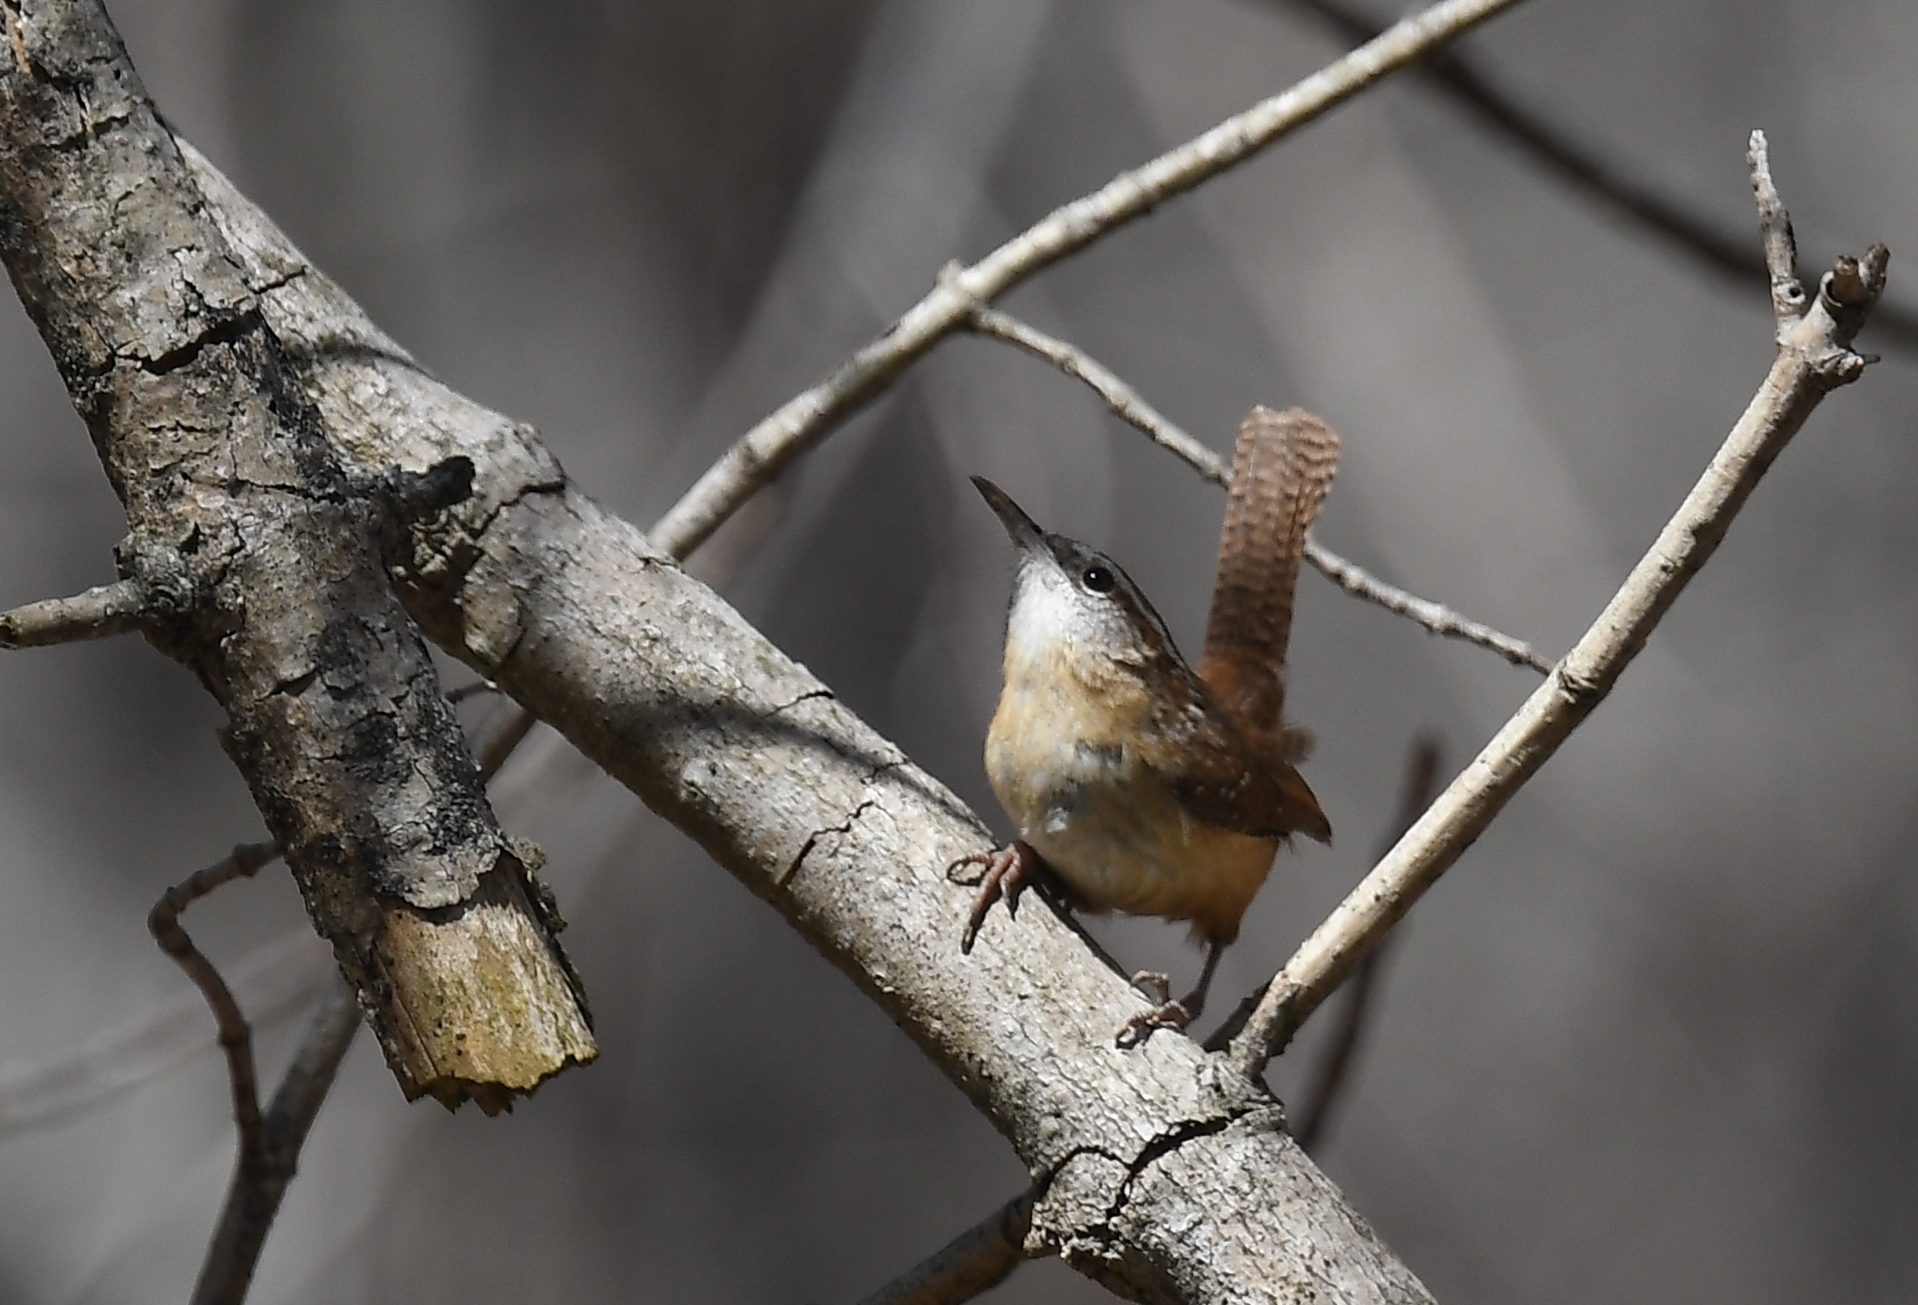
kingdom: Animalia
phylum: Chordata
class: Aves
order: Passeriformes
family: Troglodytidae
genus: Thryothorus
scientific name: Thryothorus ludovicianus
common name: Carolina wren
